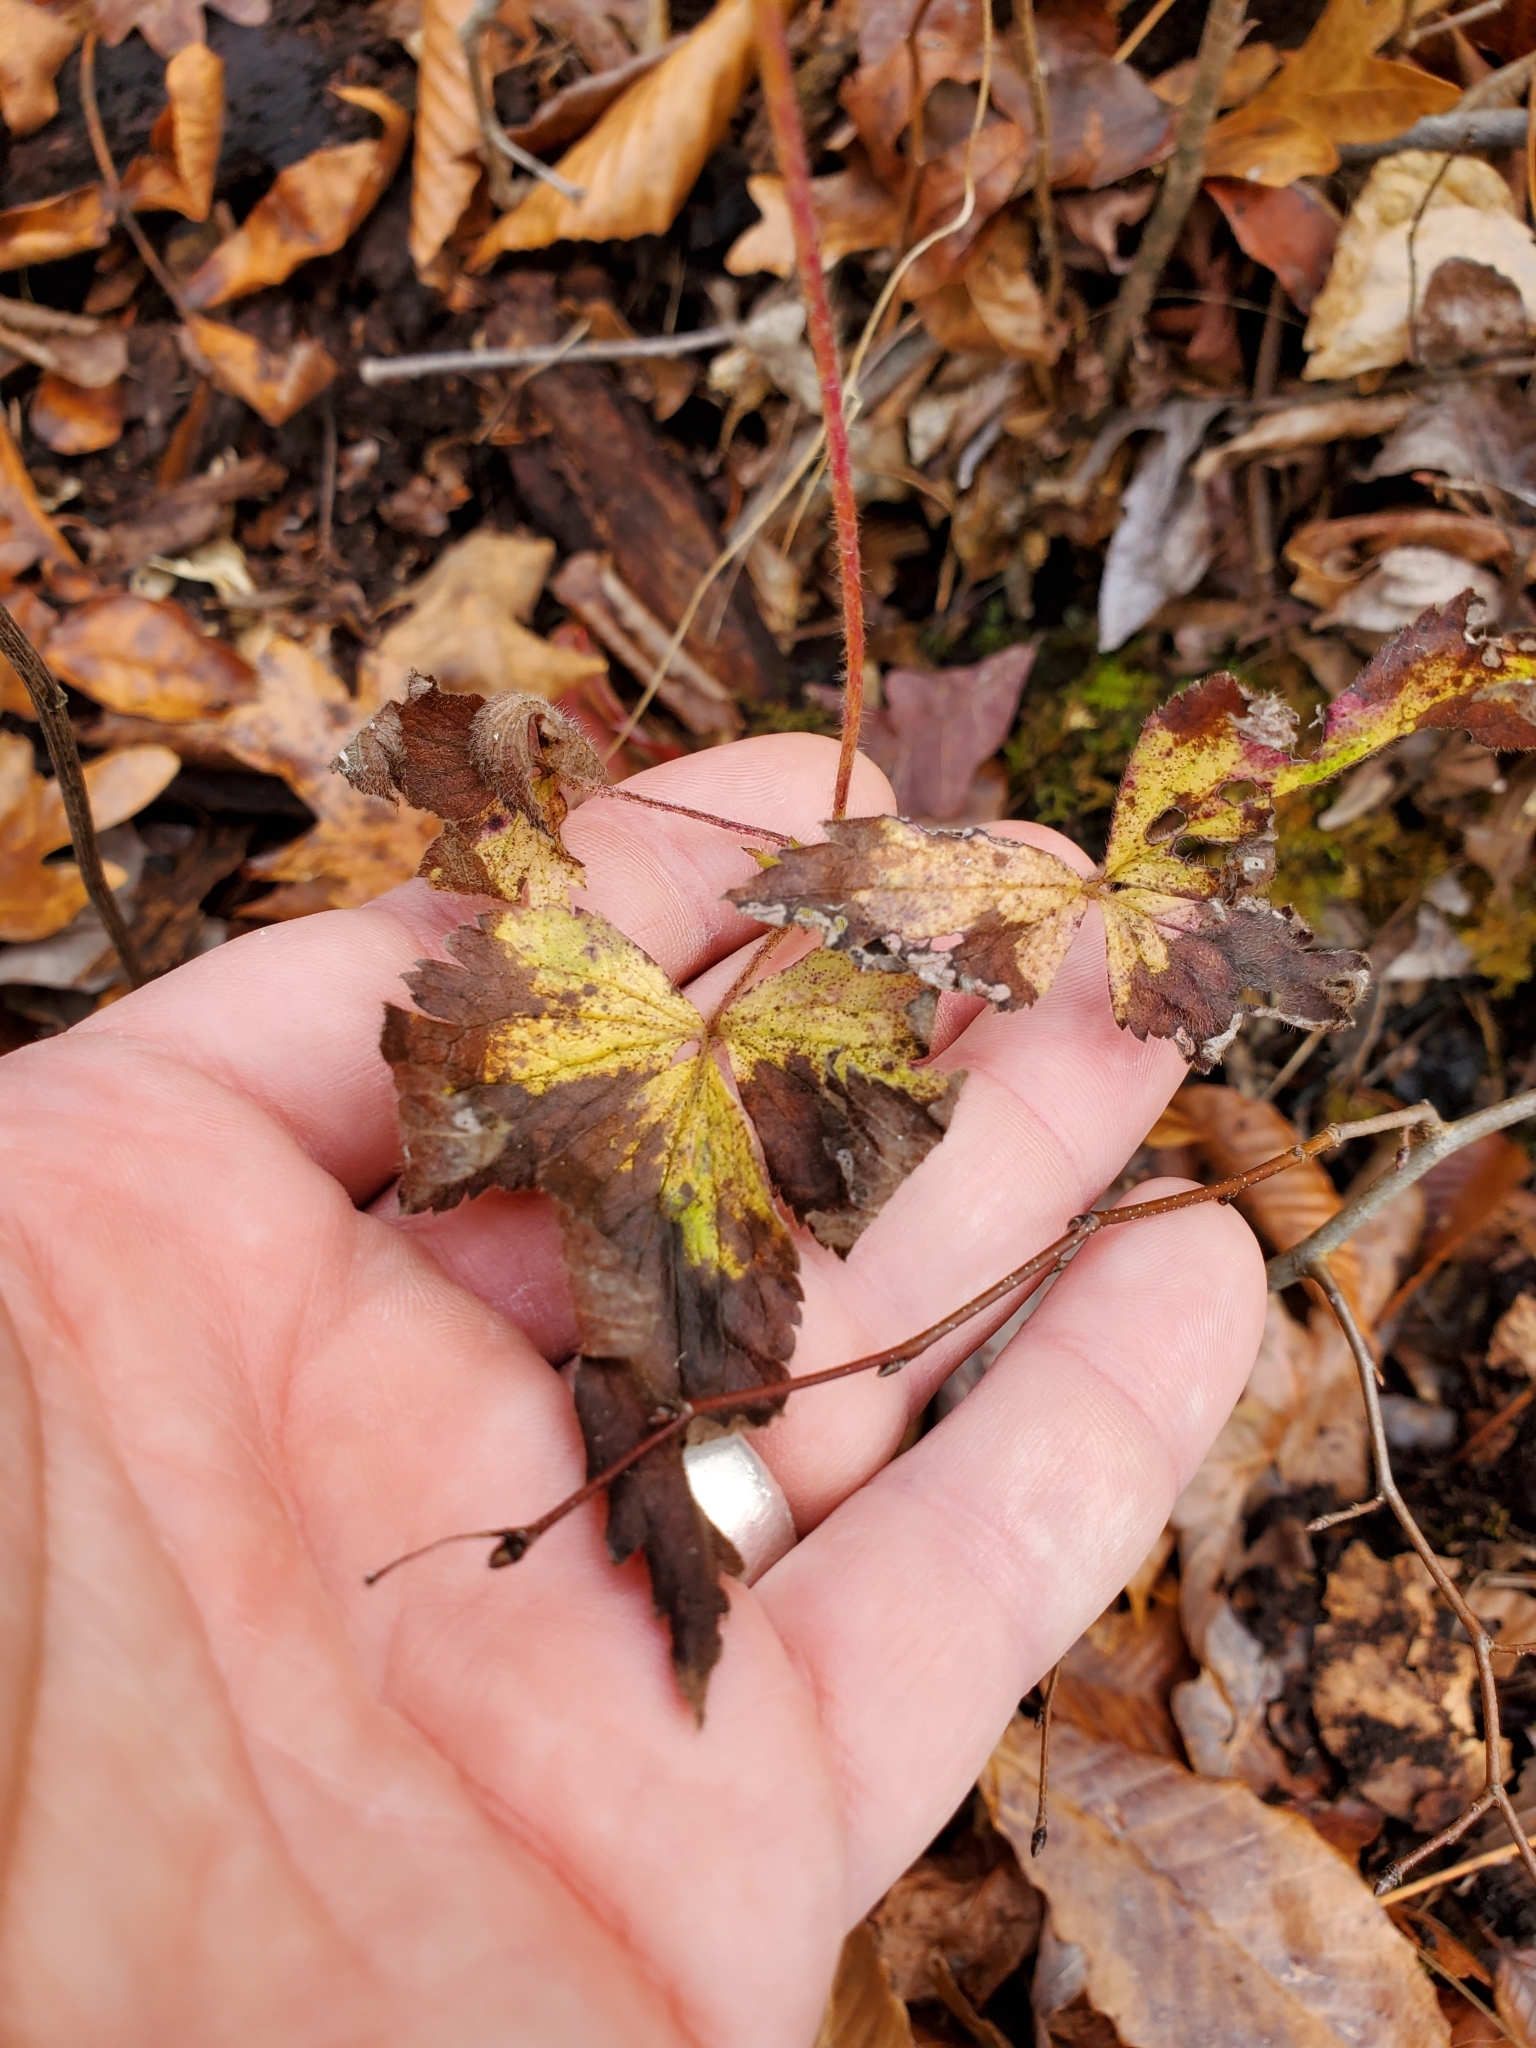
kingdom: Plantae
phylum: Tracheophyta
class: Magnoliopsida
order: Ranunculales
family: Ranunculaceae
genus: Anemone
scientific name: Anemone virginiana
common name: Tall anemone
